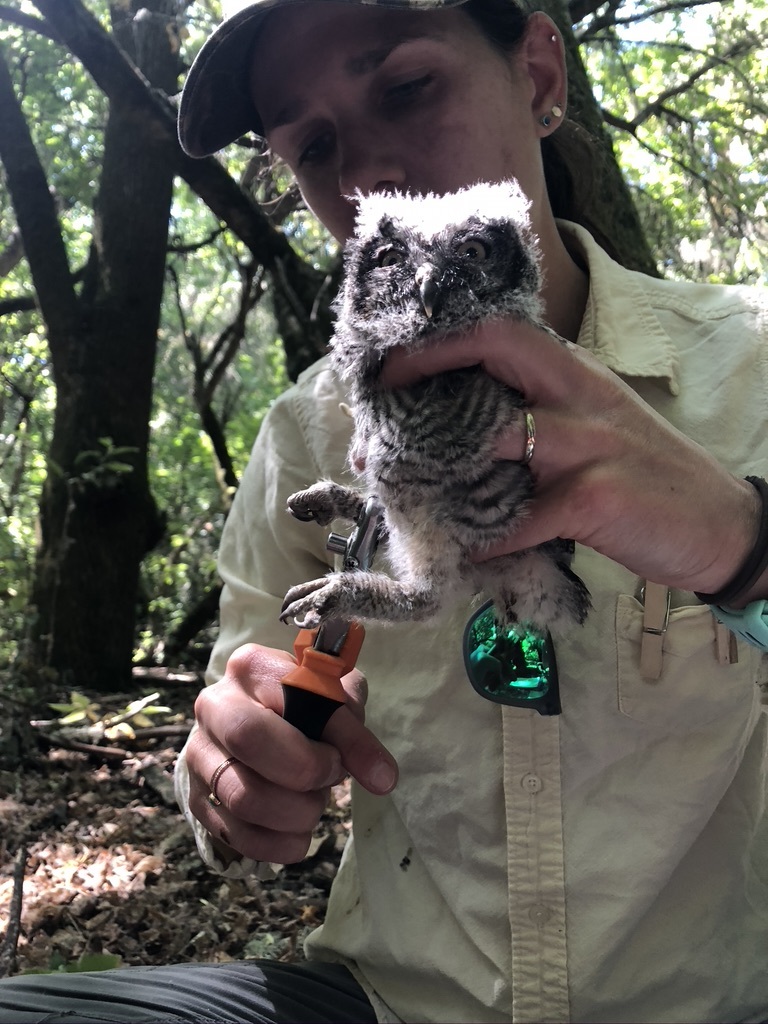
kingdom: Animalia
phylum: Chordata
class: Aves
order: Strigiformes
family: Strigidae
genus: Megascops
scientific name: Megascops kennicottii
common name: Western screech-owl
